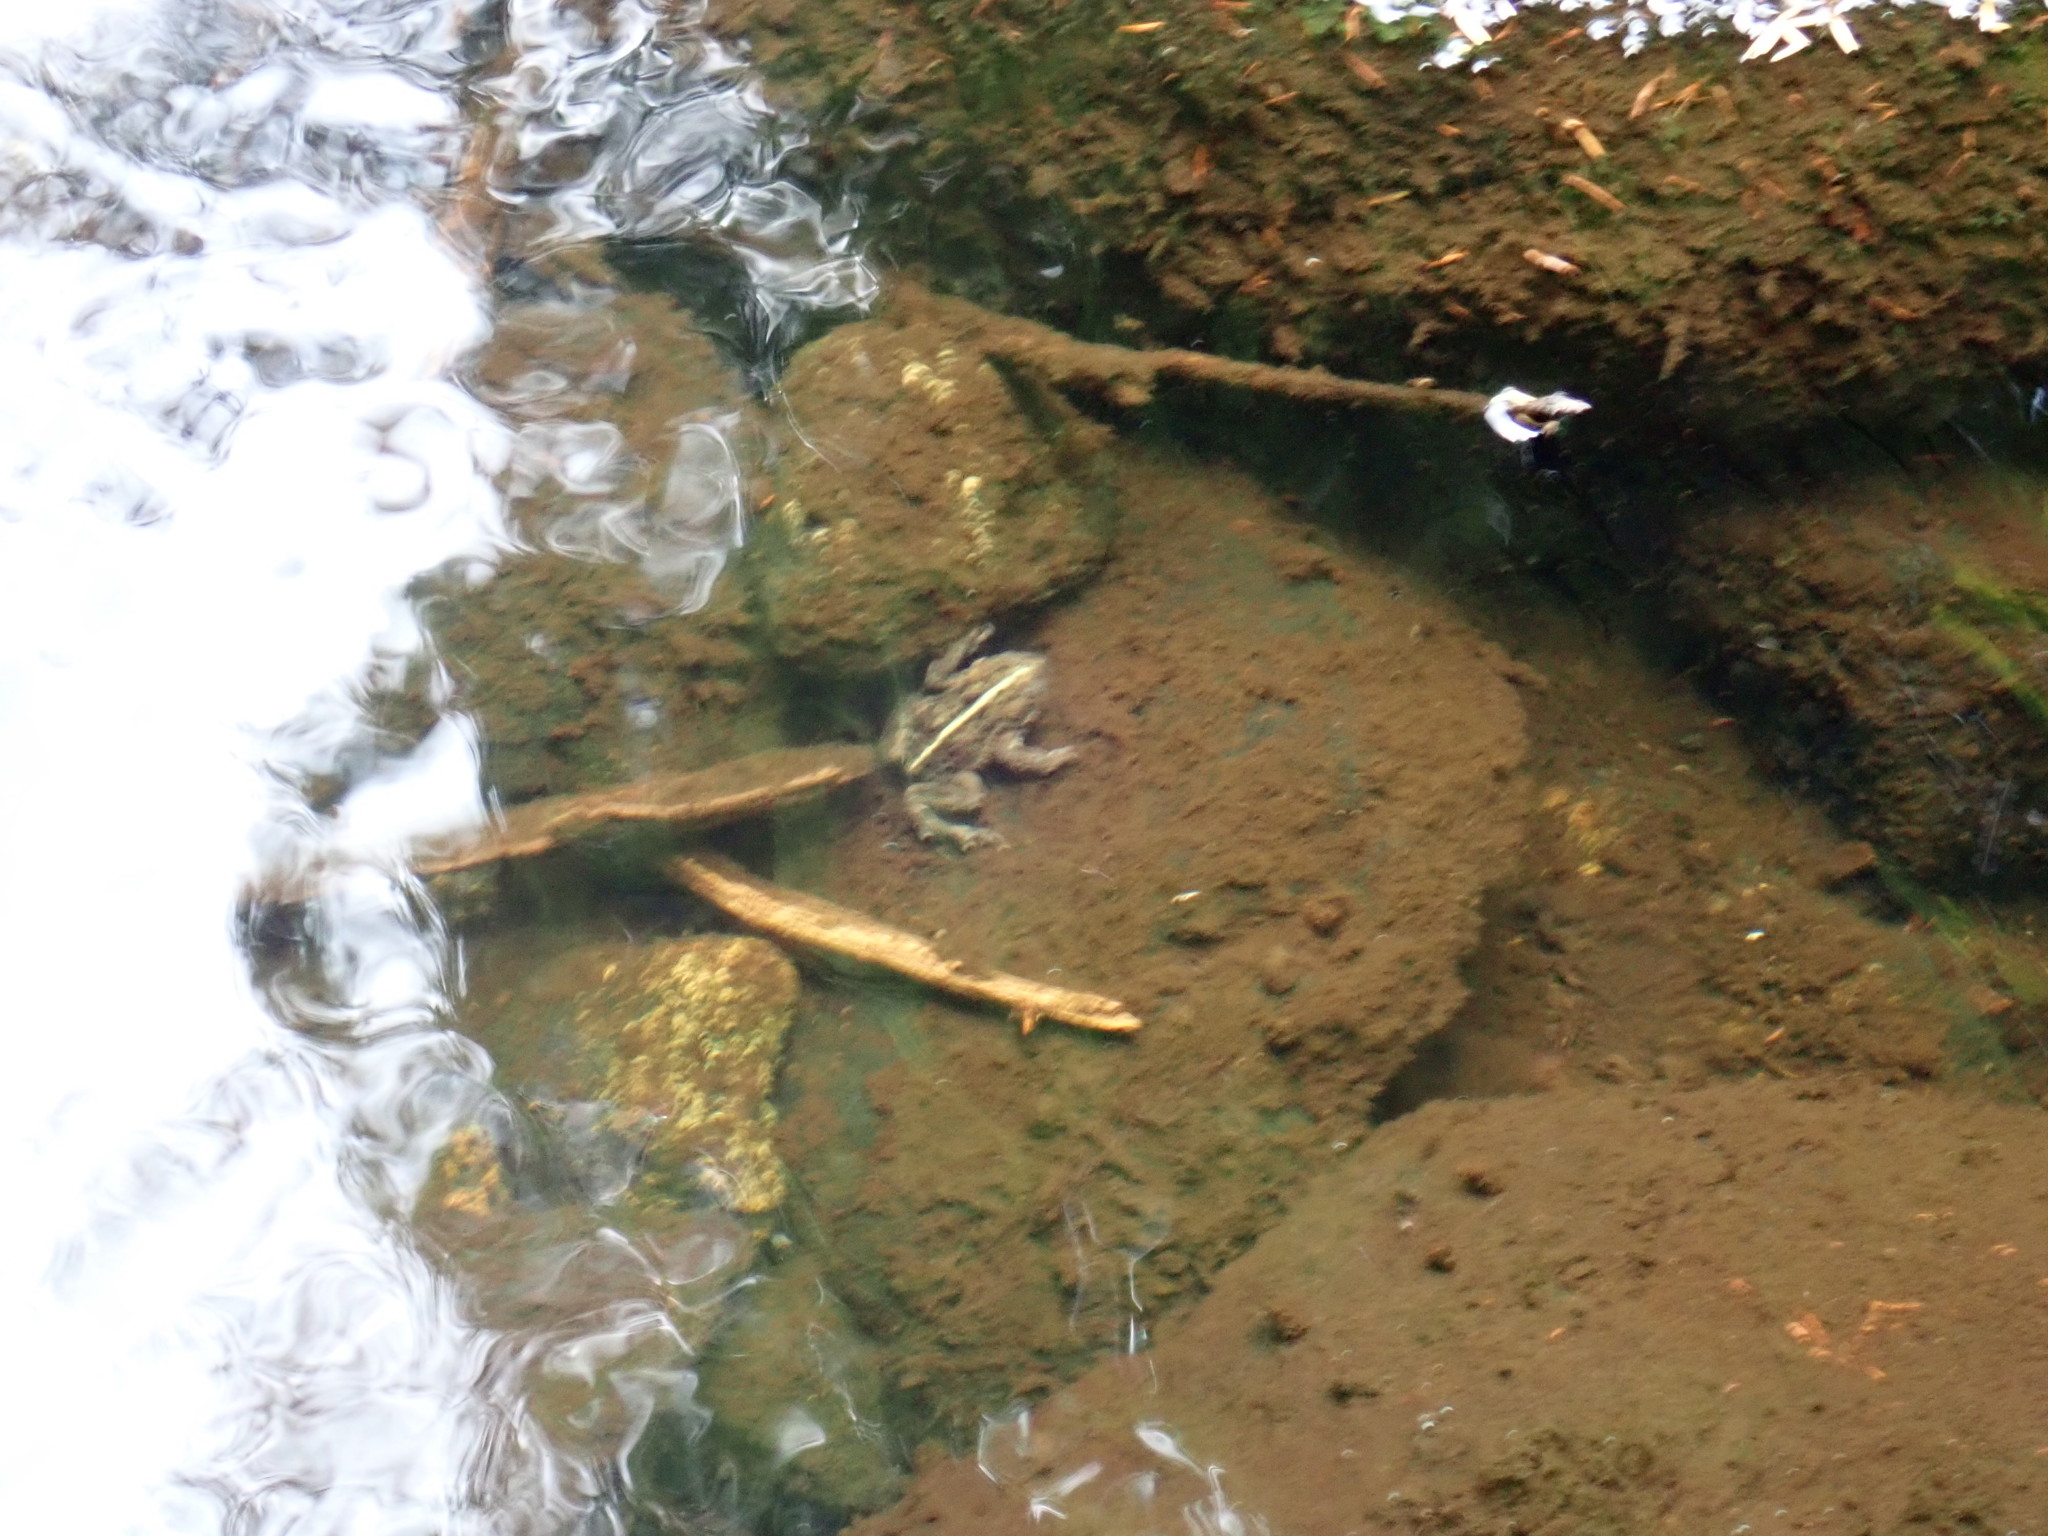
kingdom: Animalia
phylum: Chordata
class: Amphibia
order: Anura
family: Bufonidae
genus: Anaxyrus
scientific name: Anaxyrus boreas
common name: Western toad
